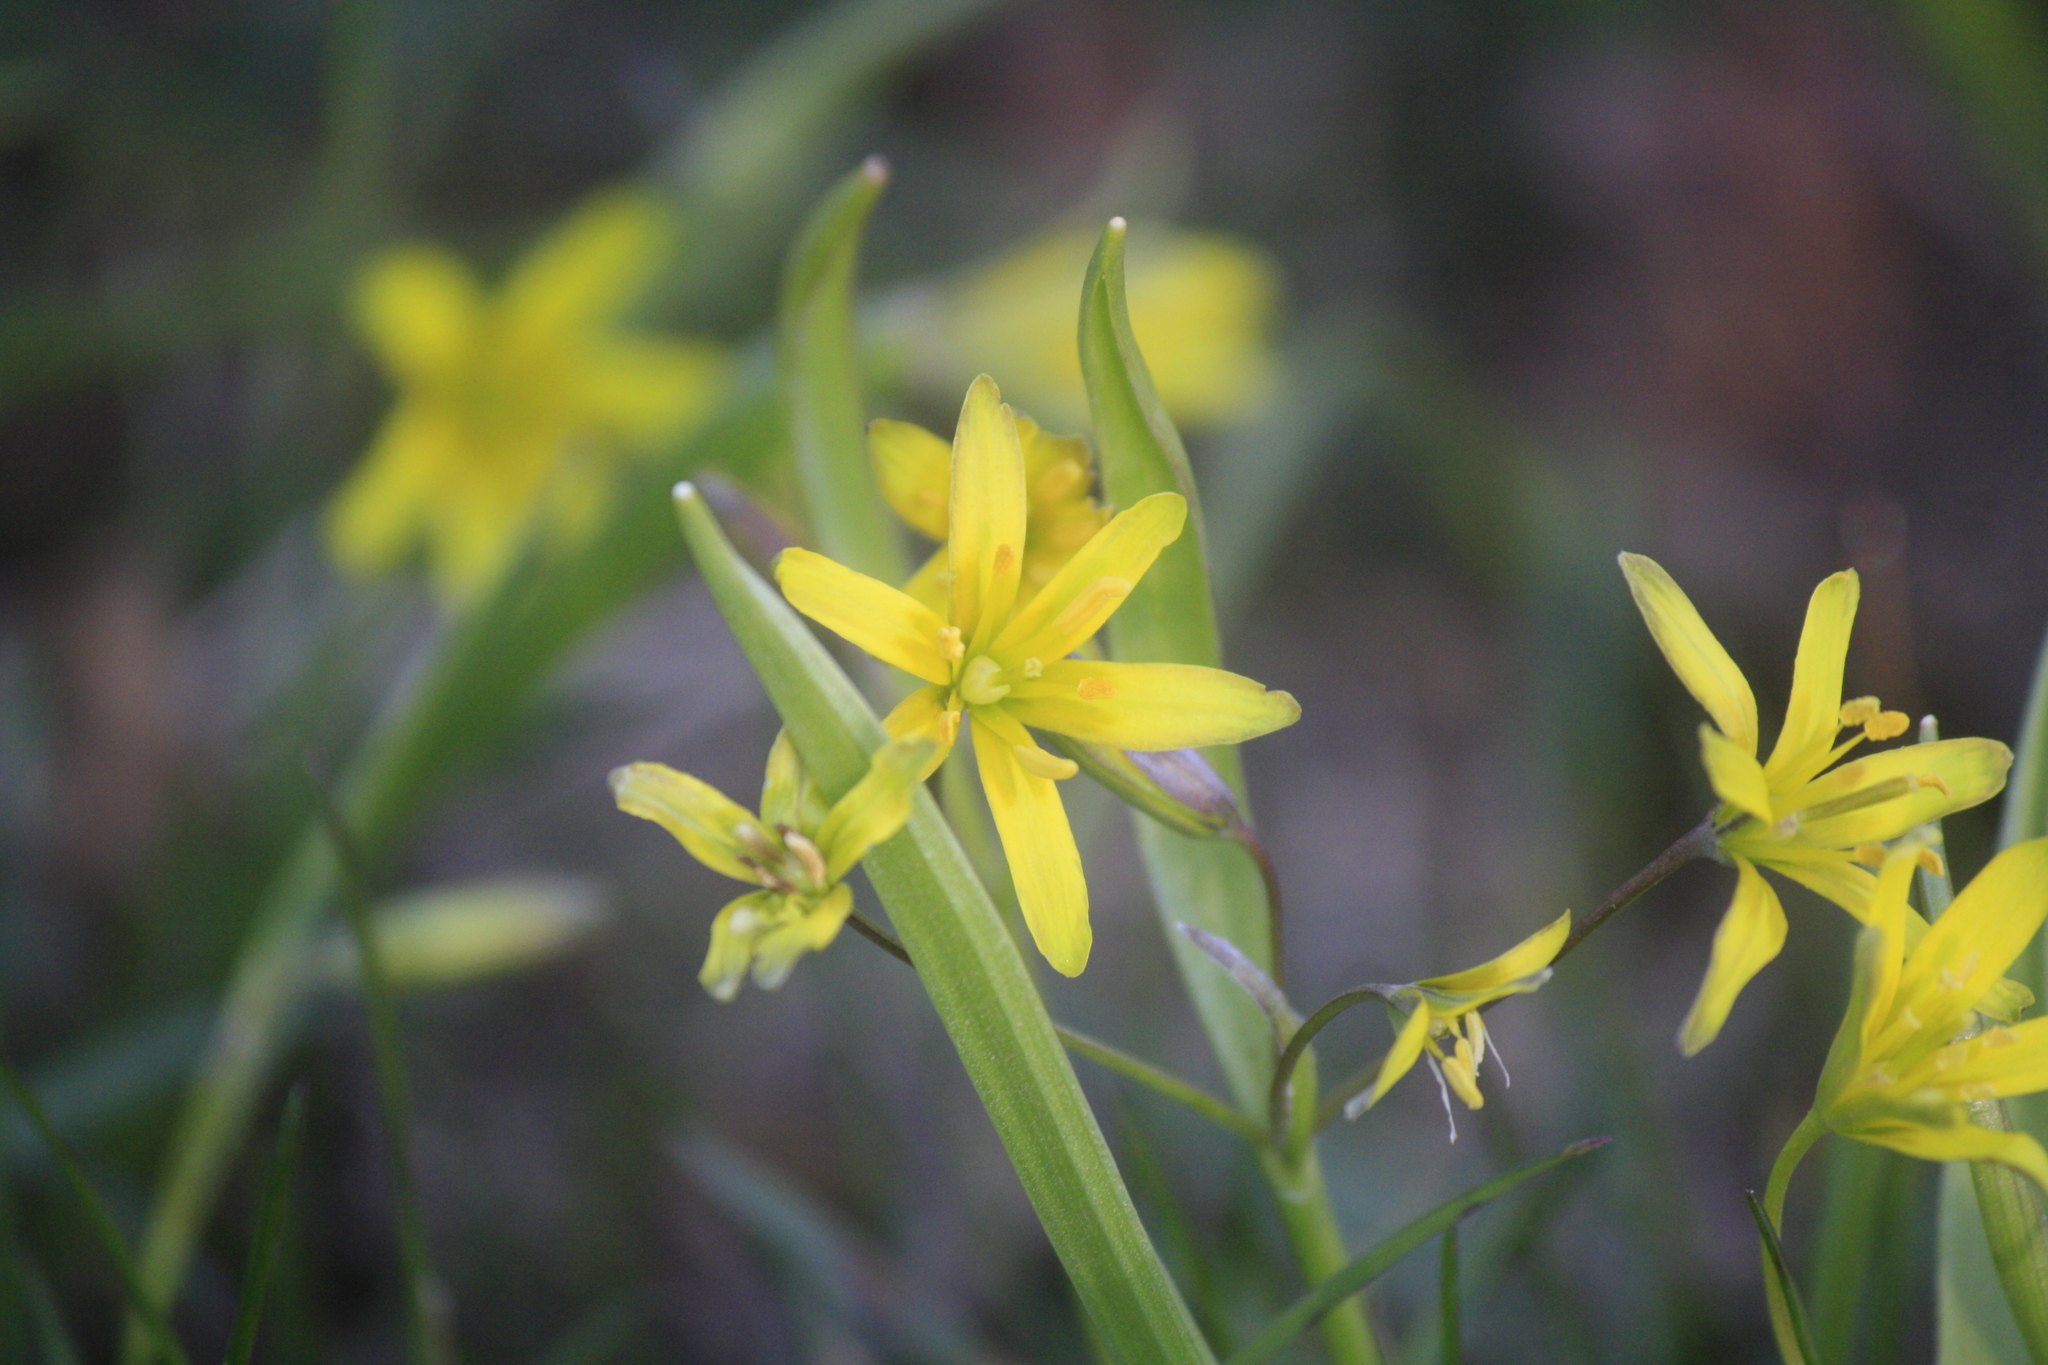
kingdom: Plantae
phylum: Tracheophyta
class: Liliopsida
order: Liliales
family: Liliaceae
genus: Gagea
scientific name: Gagea lutea
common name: Yellow star-of-bethlehem
